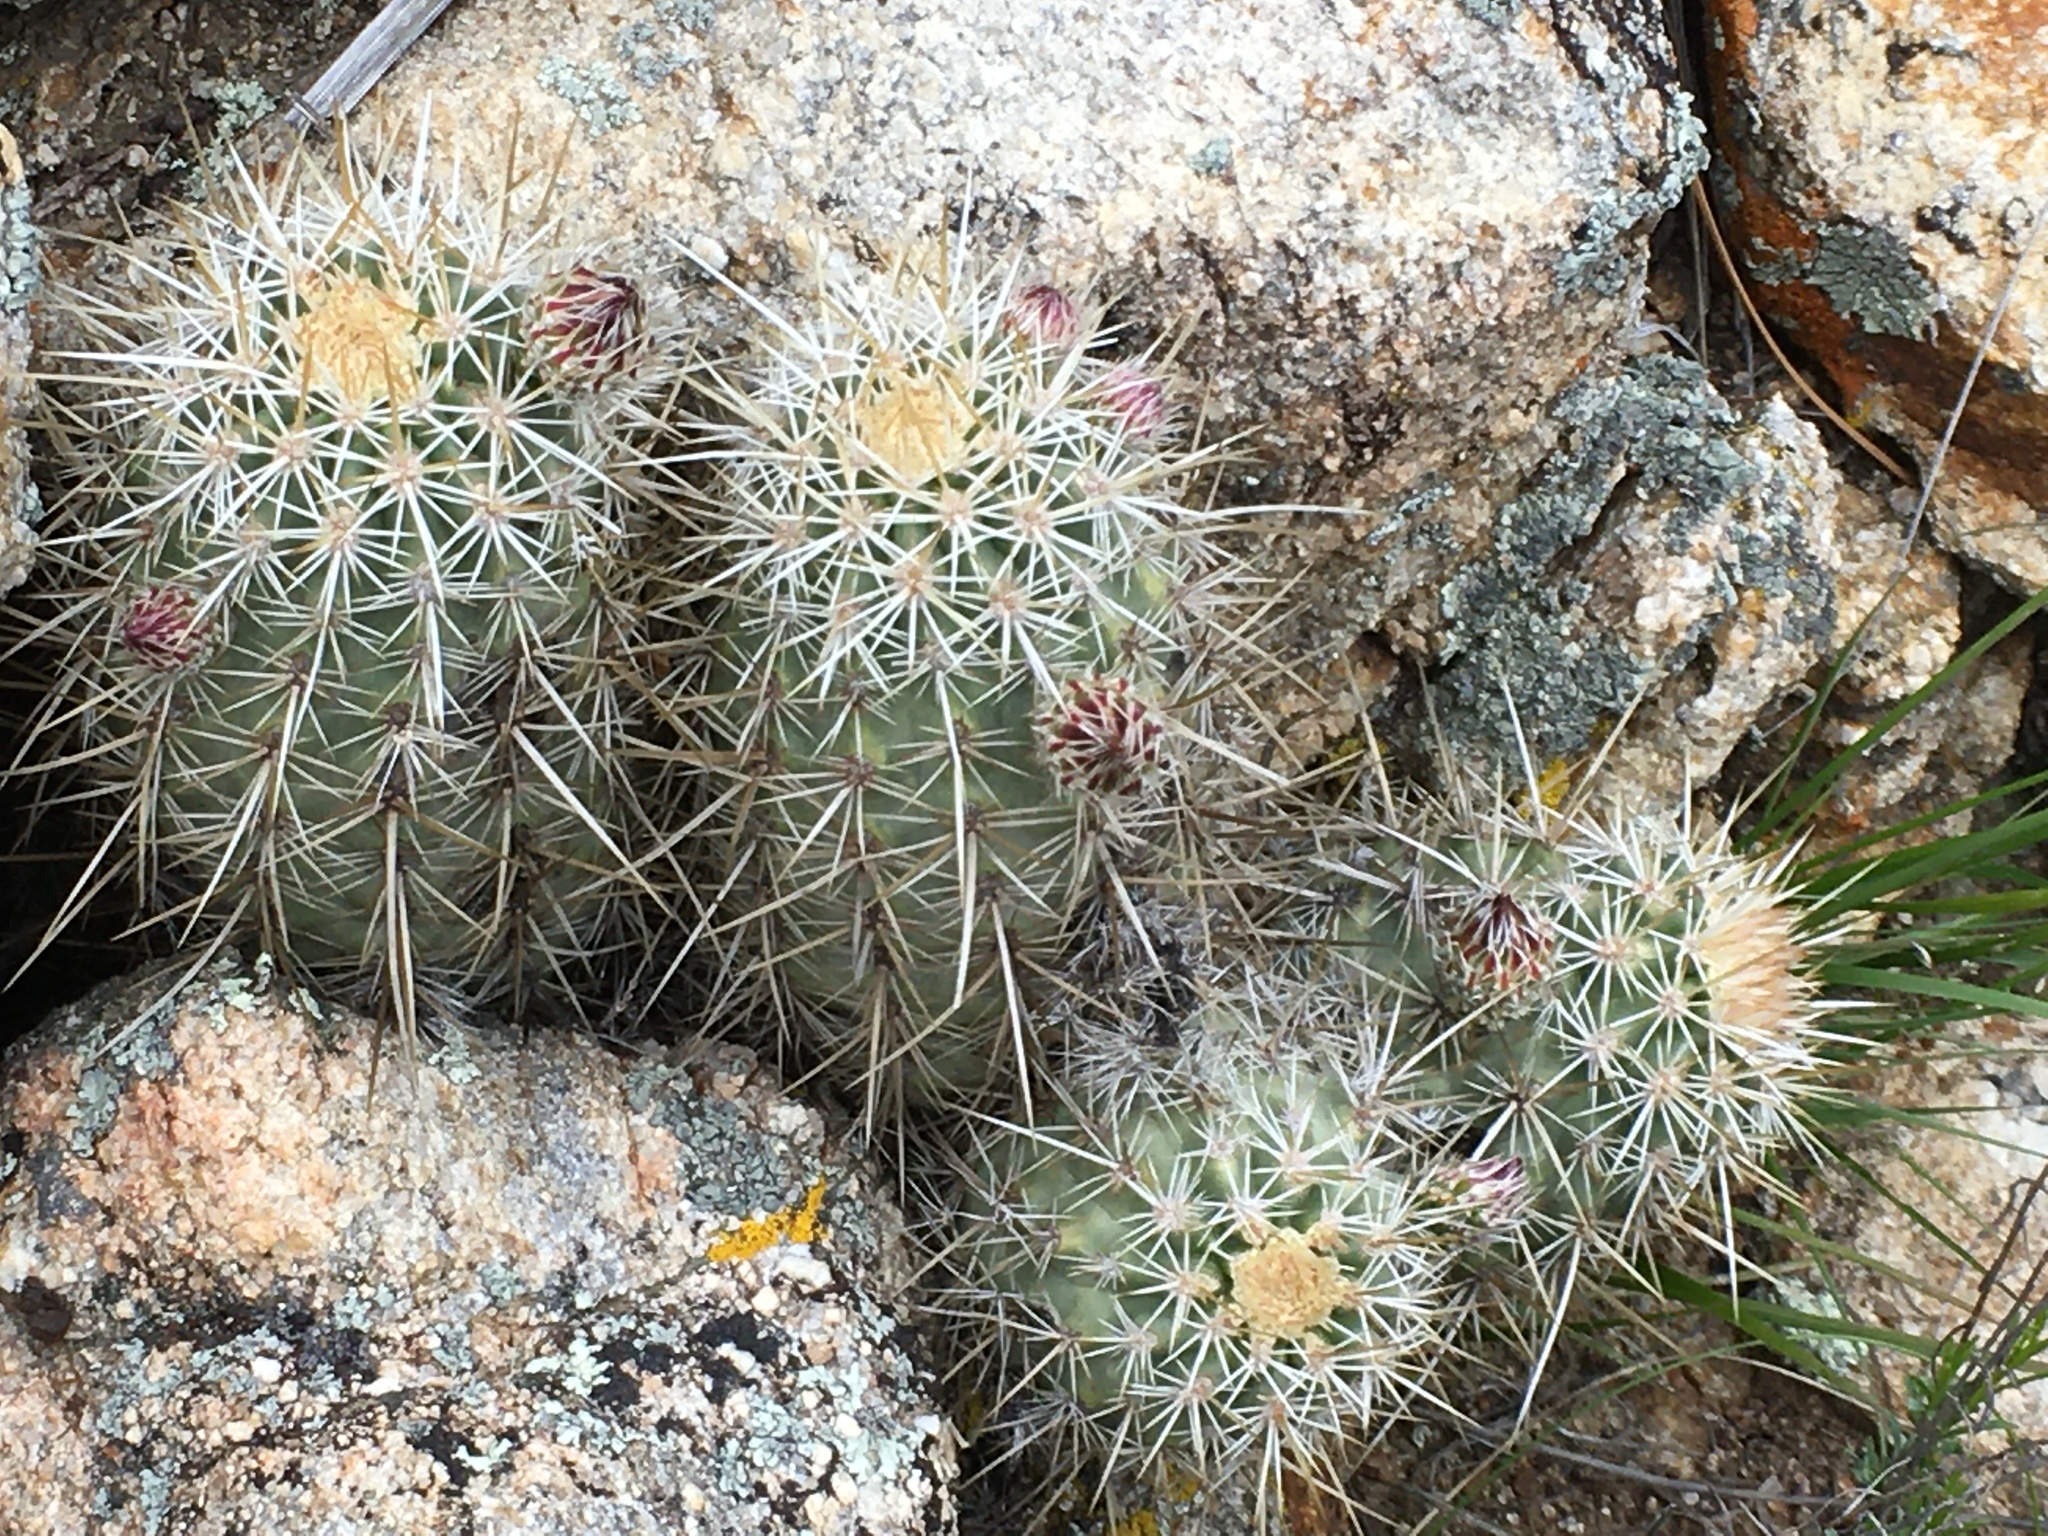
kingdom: Plantae
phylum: Tracheophyta
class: Magnoliopsida
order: Caryophyllales
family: Cactaceae
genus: Echinocereus
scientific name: Echinocereus engelmannii
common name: Engelmann's hedgehog cactus
